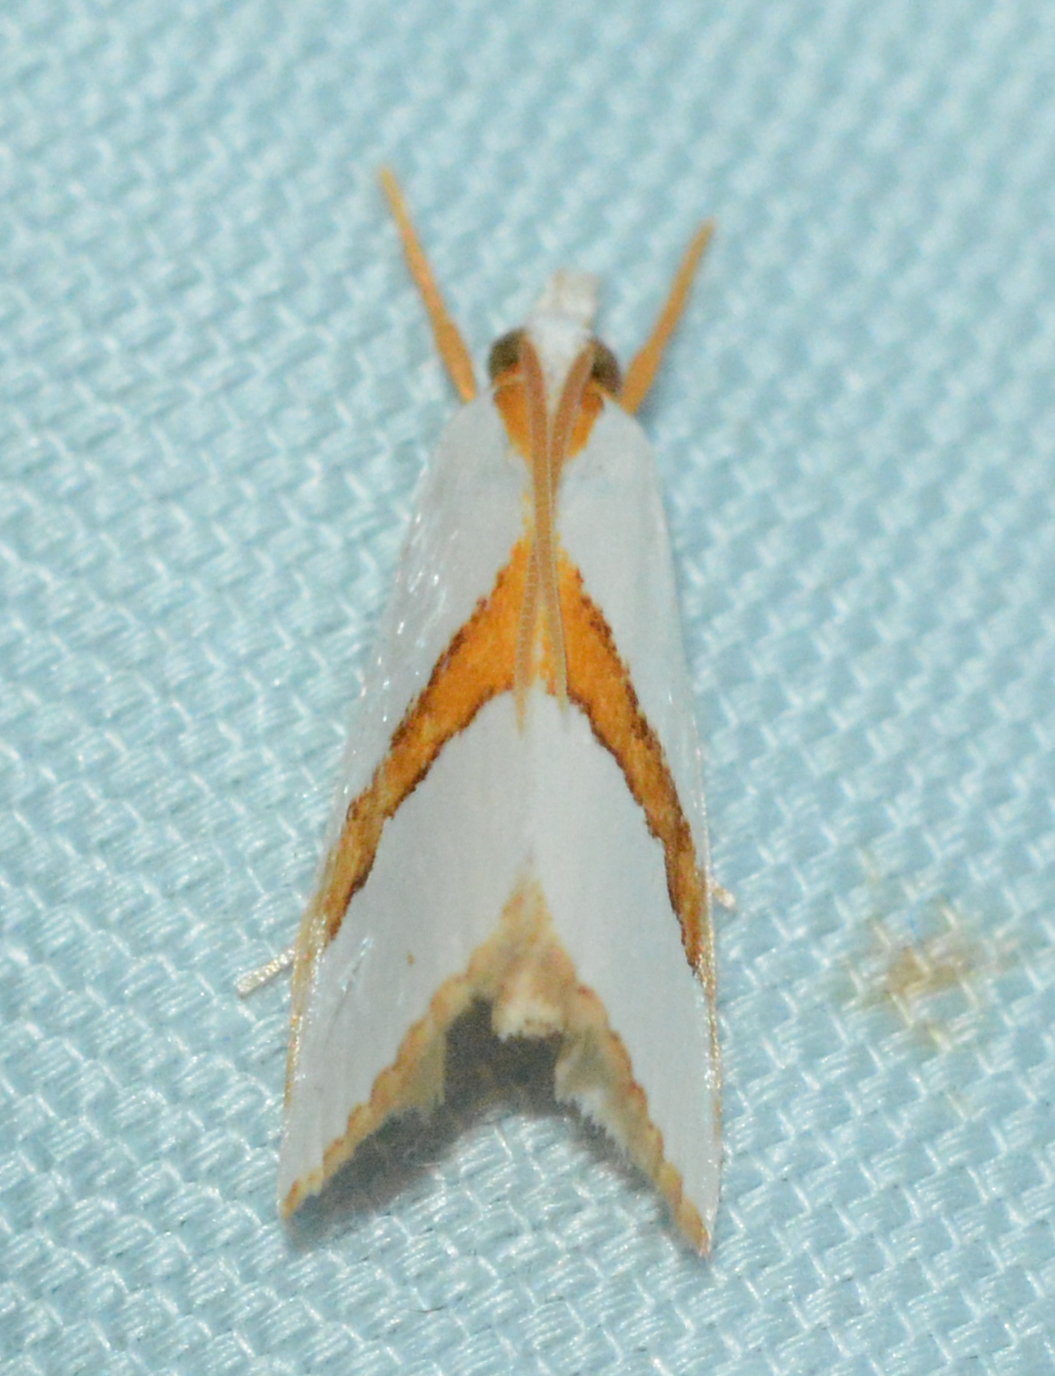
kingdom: Animalia
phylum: Arthropoda
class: Insecta
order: Lepidoptera
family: Crambidae
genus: Vaxi
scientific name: Vaxi critica
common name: Straight-lined vaxi moth
